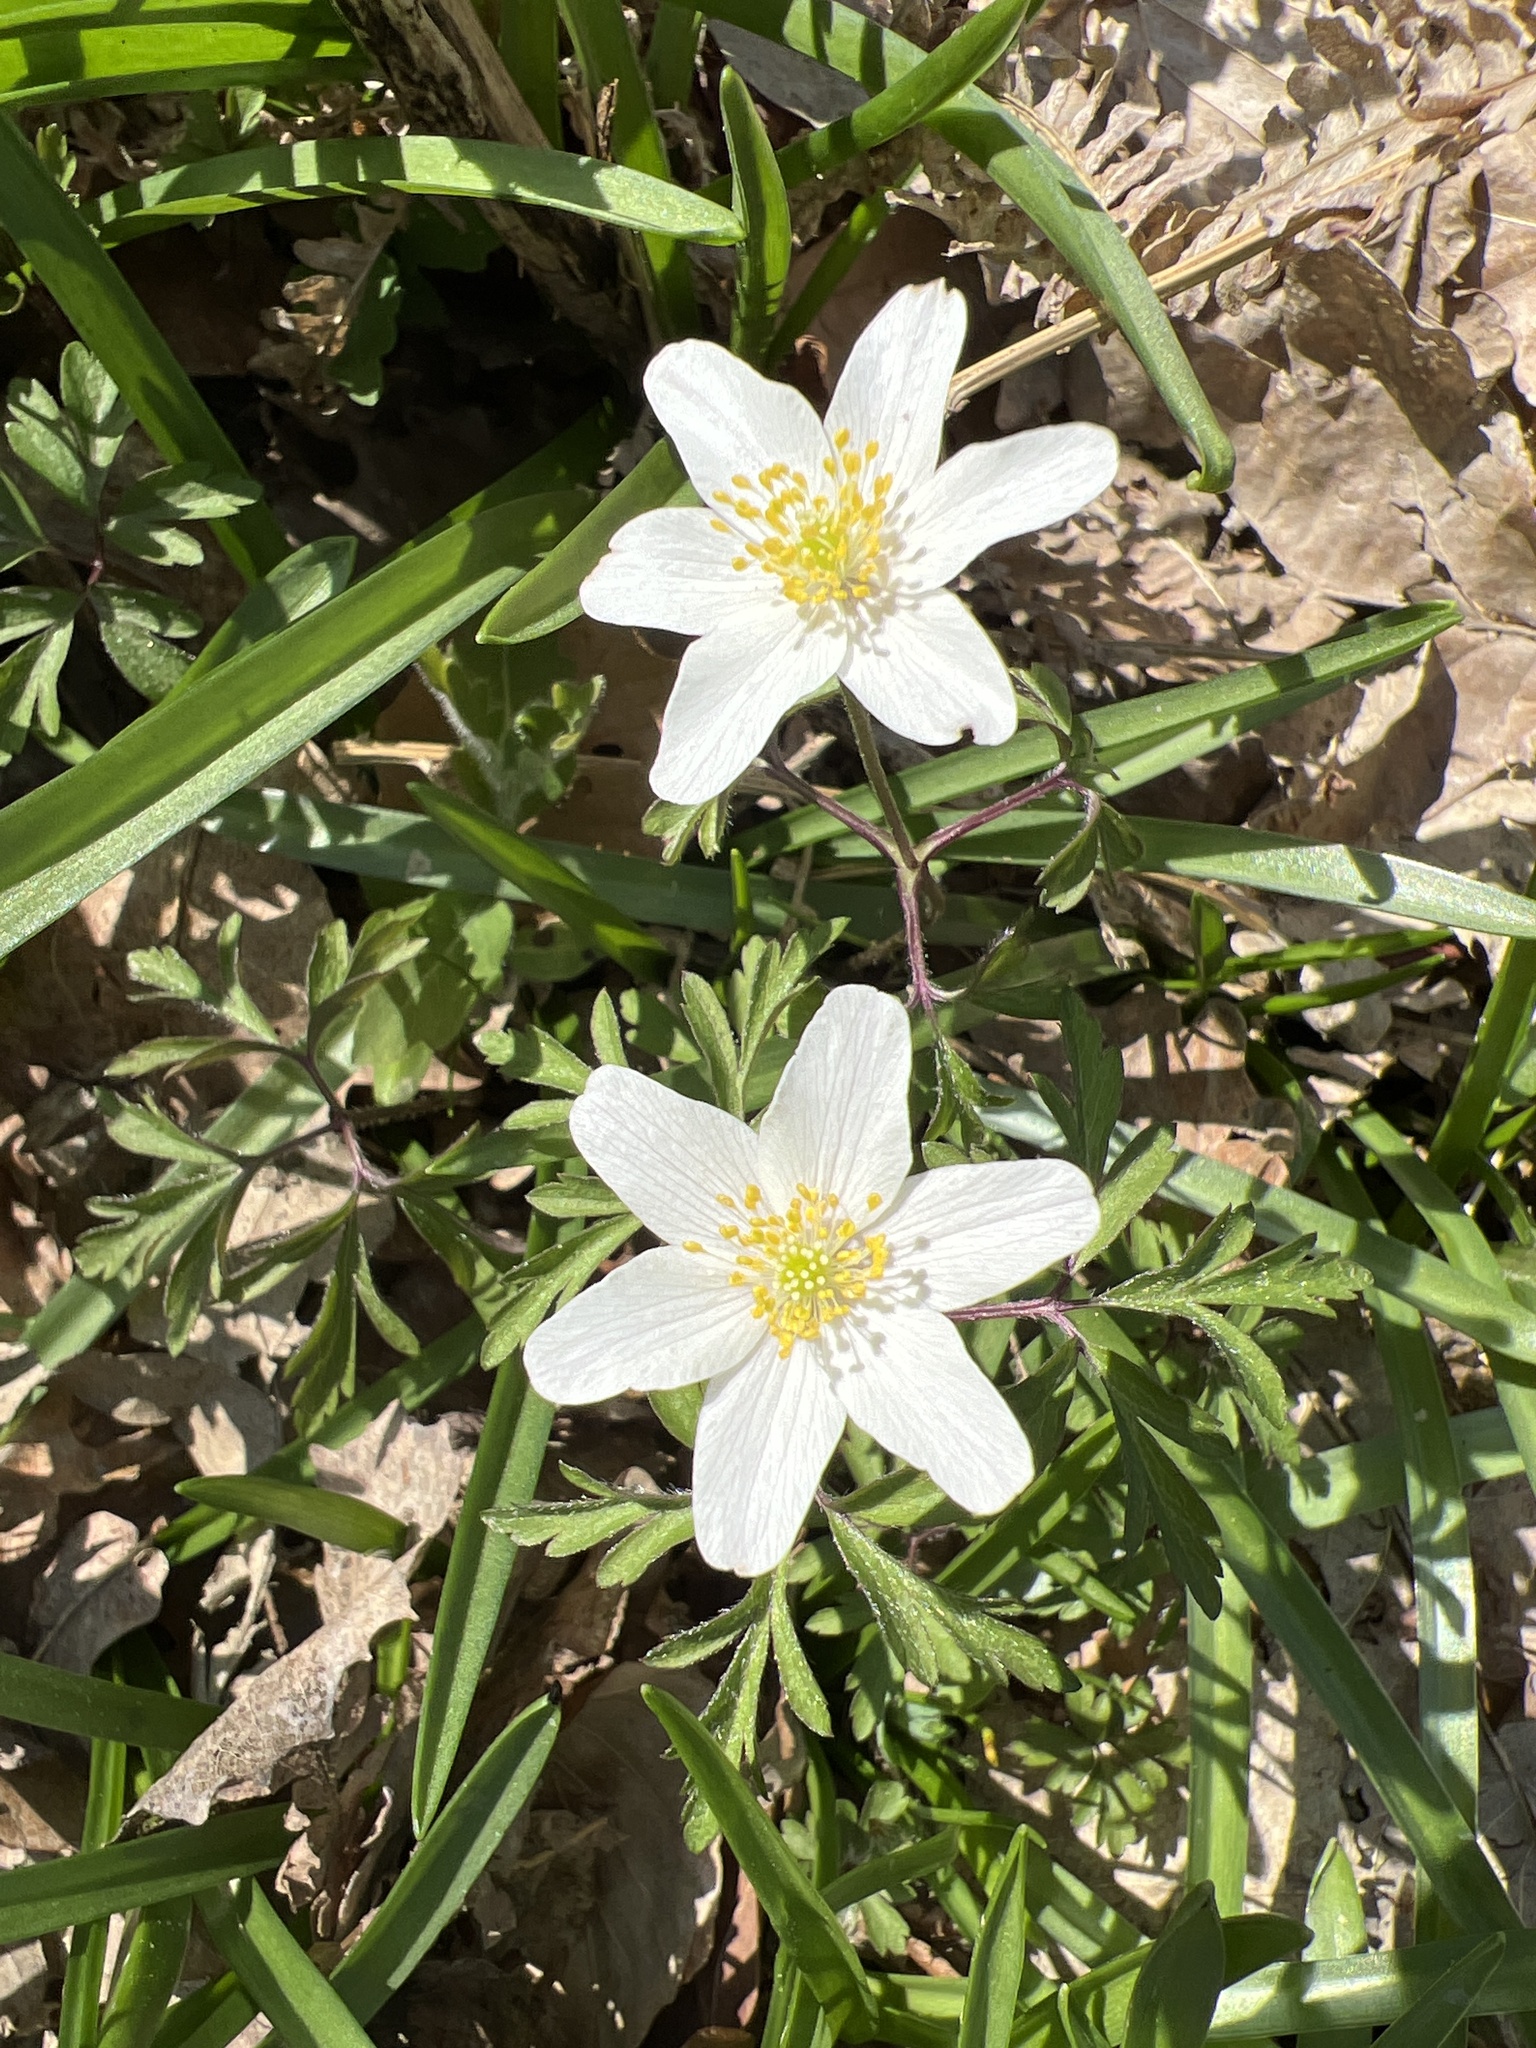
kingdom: Plantae
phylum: Tracheophyta
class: Magnoliopsida
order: Ranunculales
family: Ranunculaceae
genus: Anemone
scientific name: Anemone nemorosa
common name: Wood anemone
